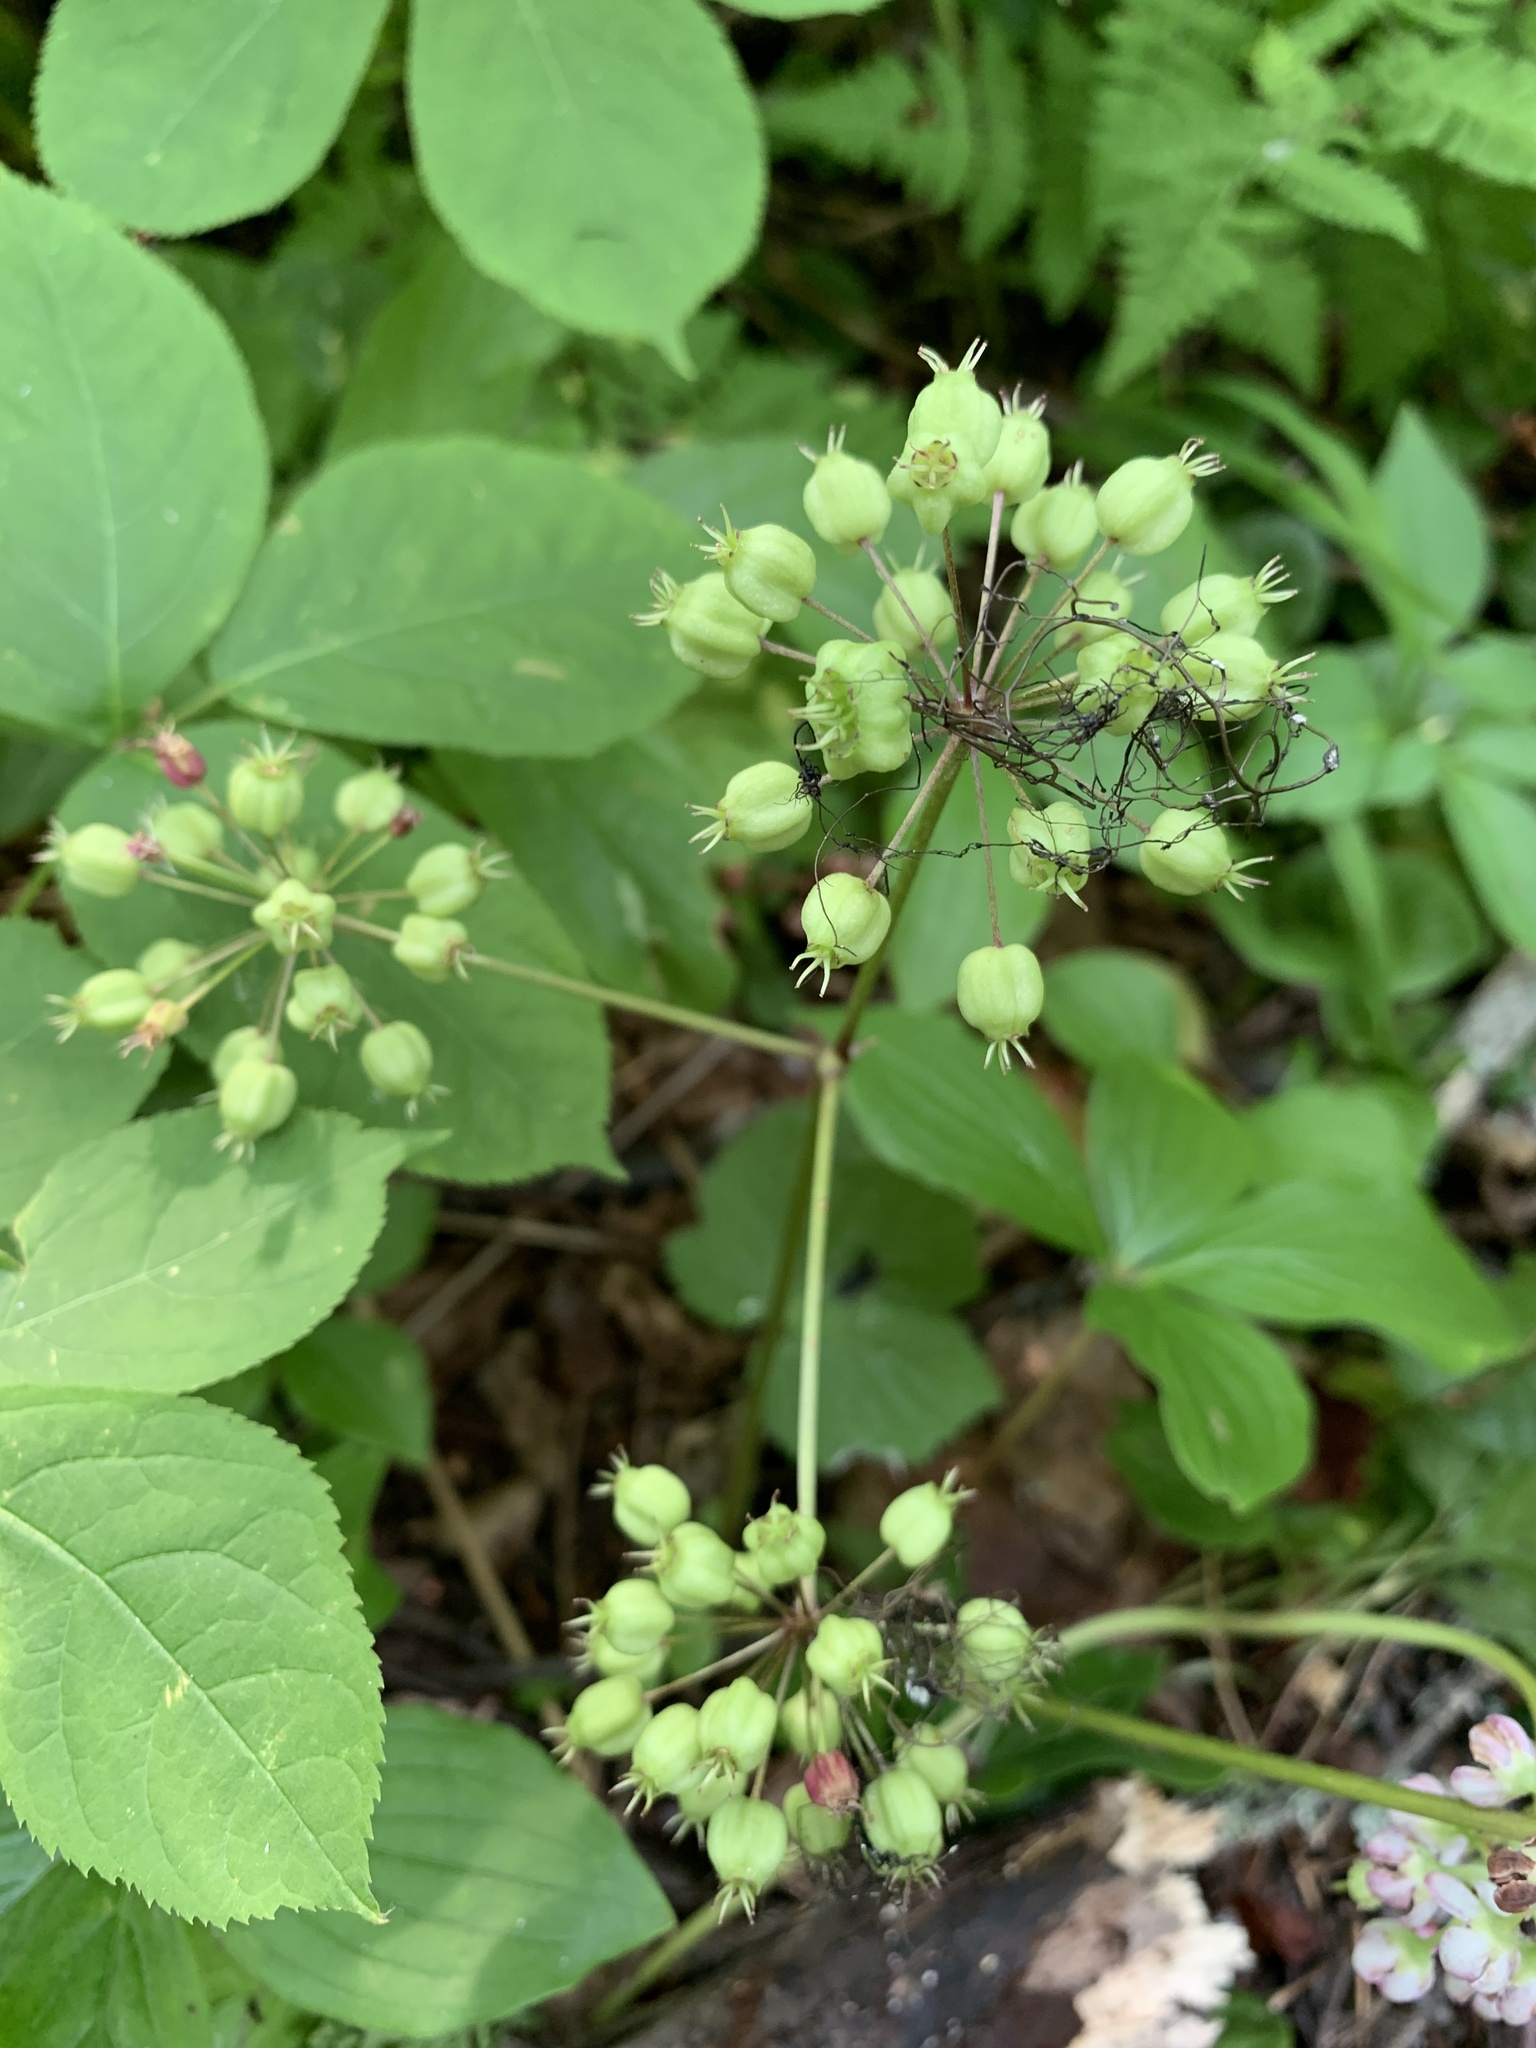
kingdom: Plantae
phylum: Tracheophyta
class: Magnoliopsida
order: Apiales
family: Araliaceae
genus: Aralia
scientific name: Aralia nudicaulis
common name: Wild sarsaparilla
